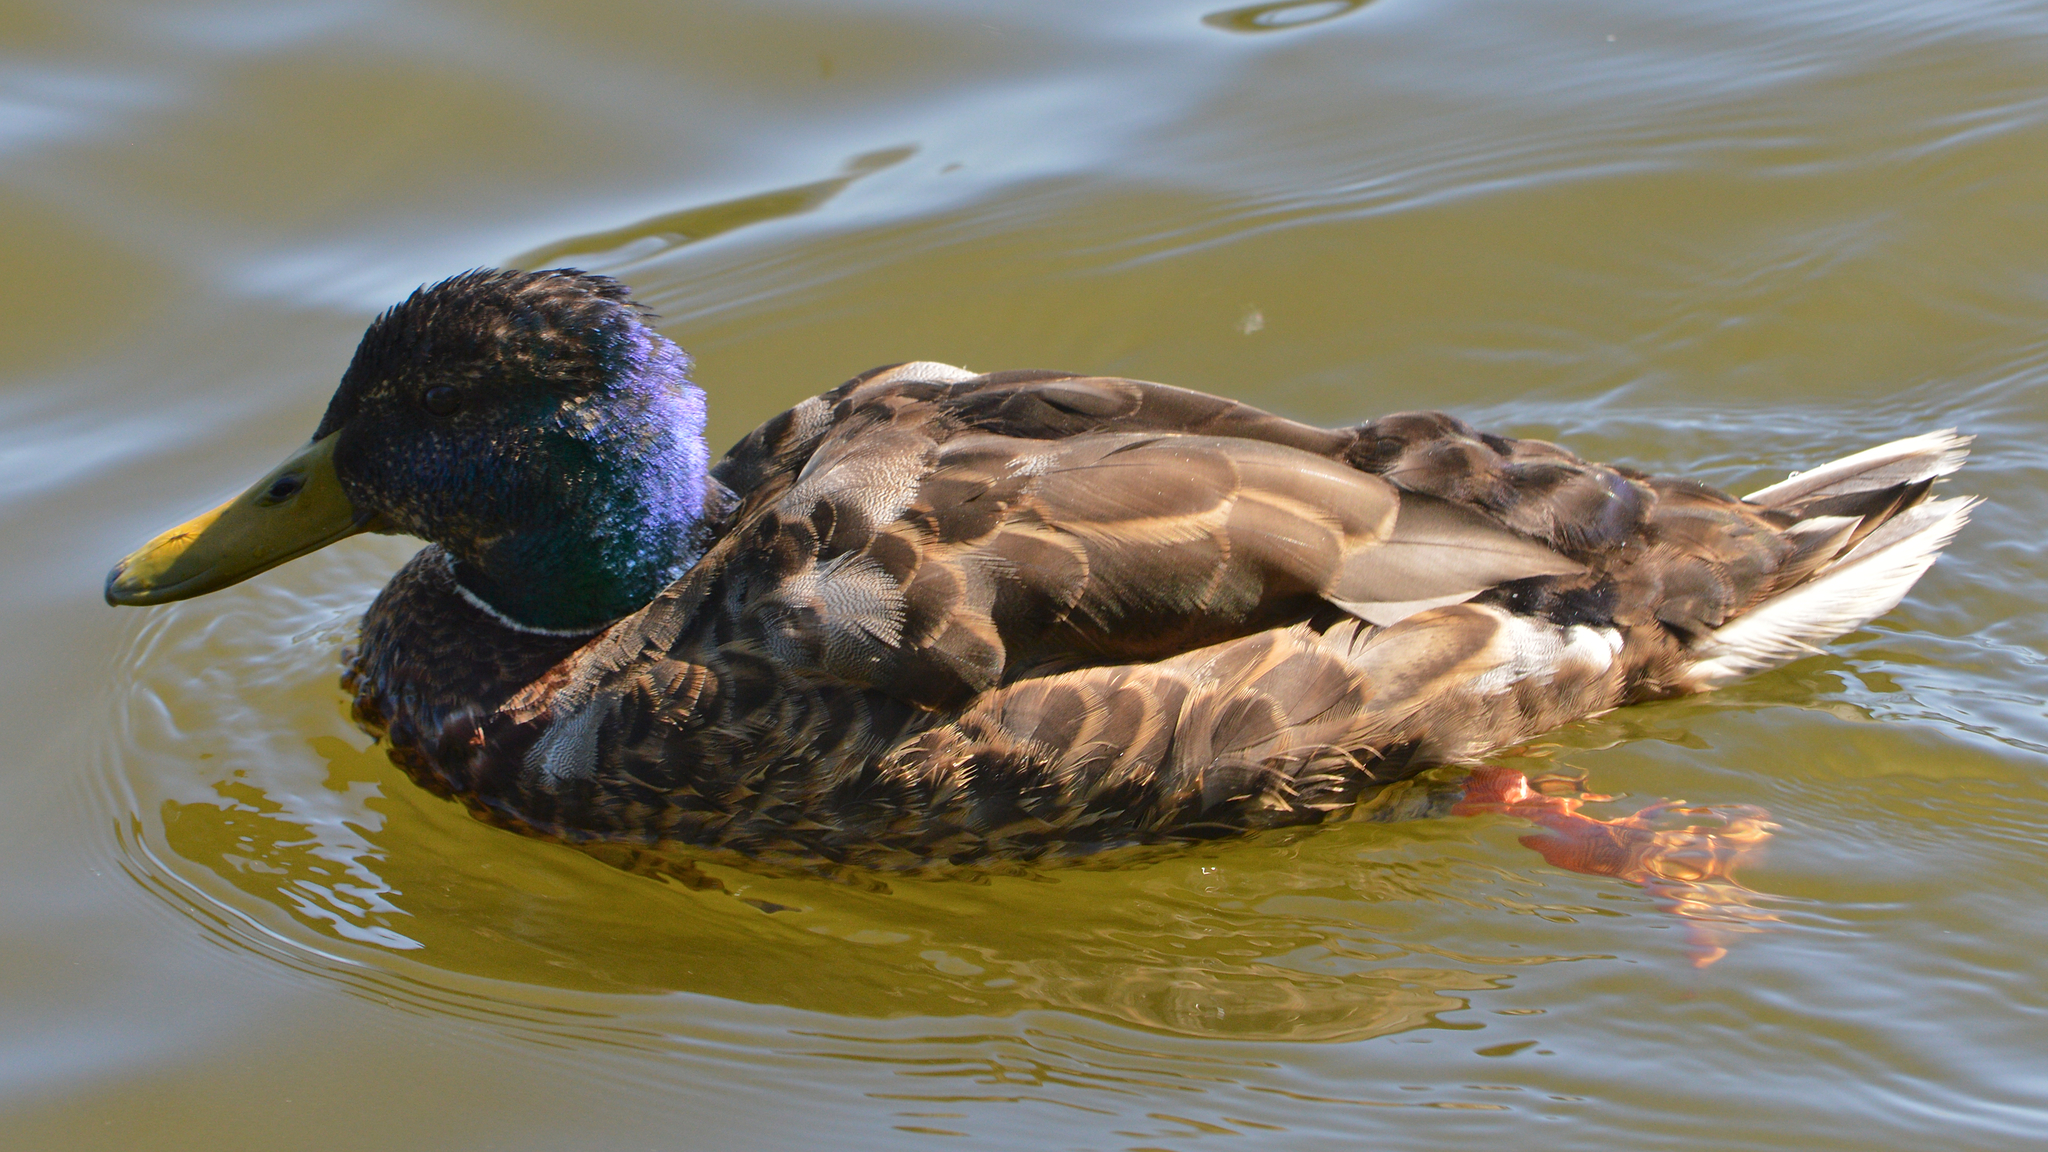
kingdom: Animalia
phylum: Chordata
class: Aves
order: Anseriformes
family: Anatidae
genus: Anas
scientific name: Anas platyrhynchos
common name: Mallard
